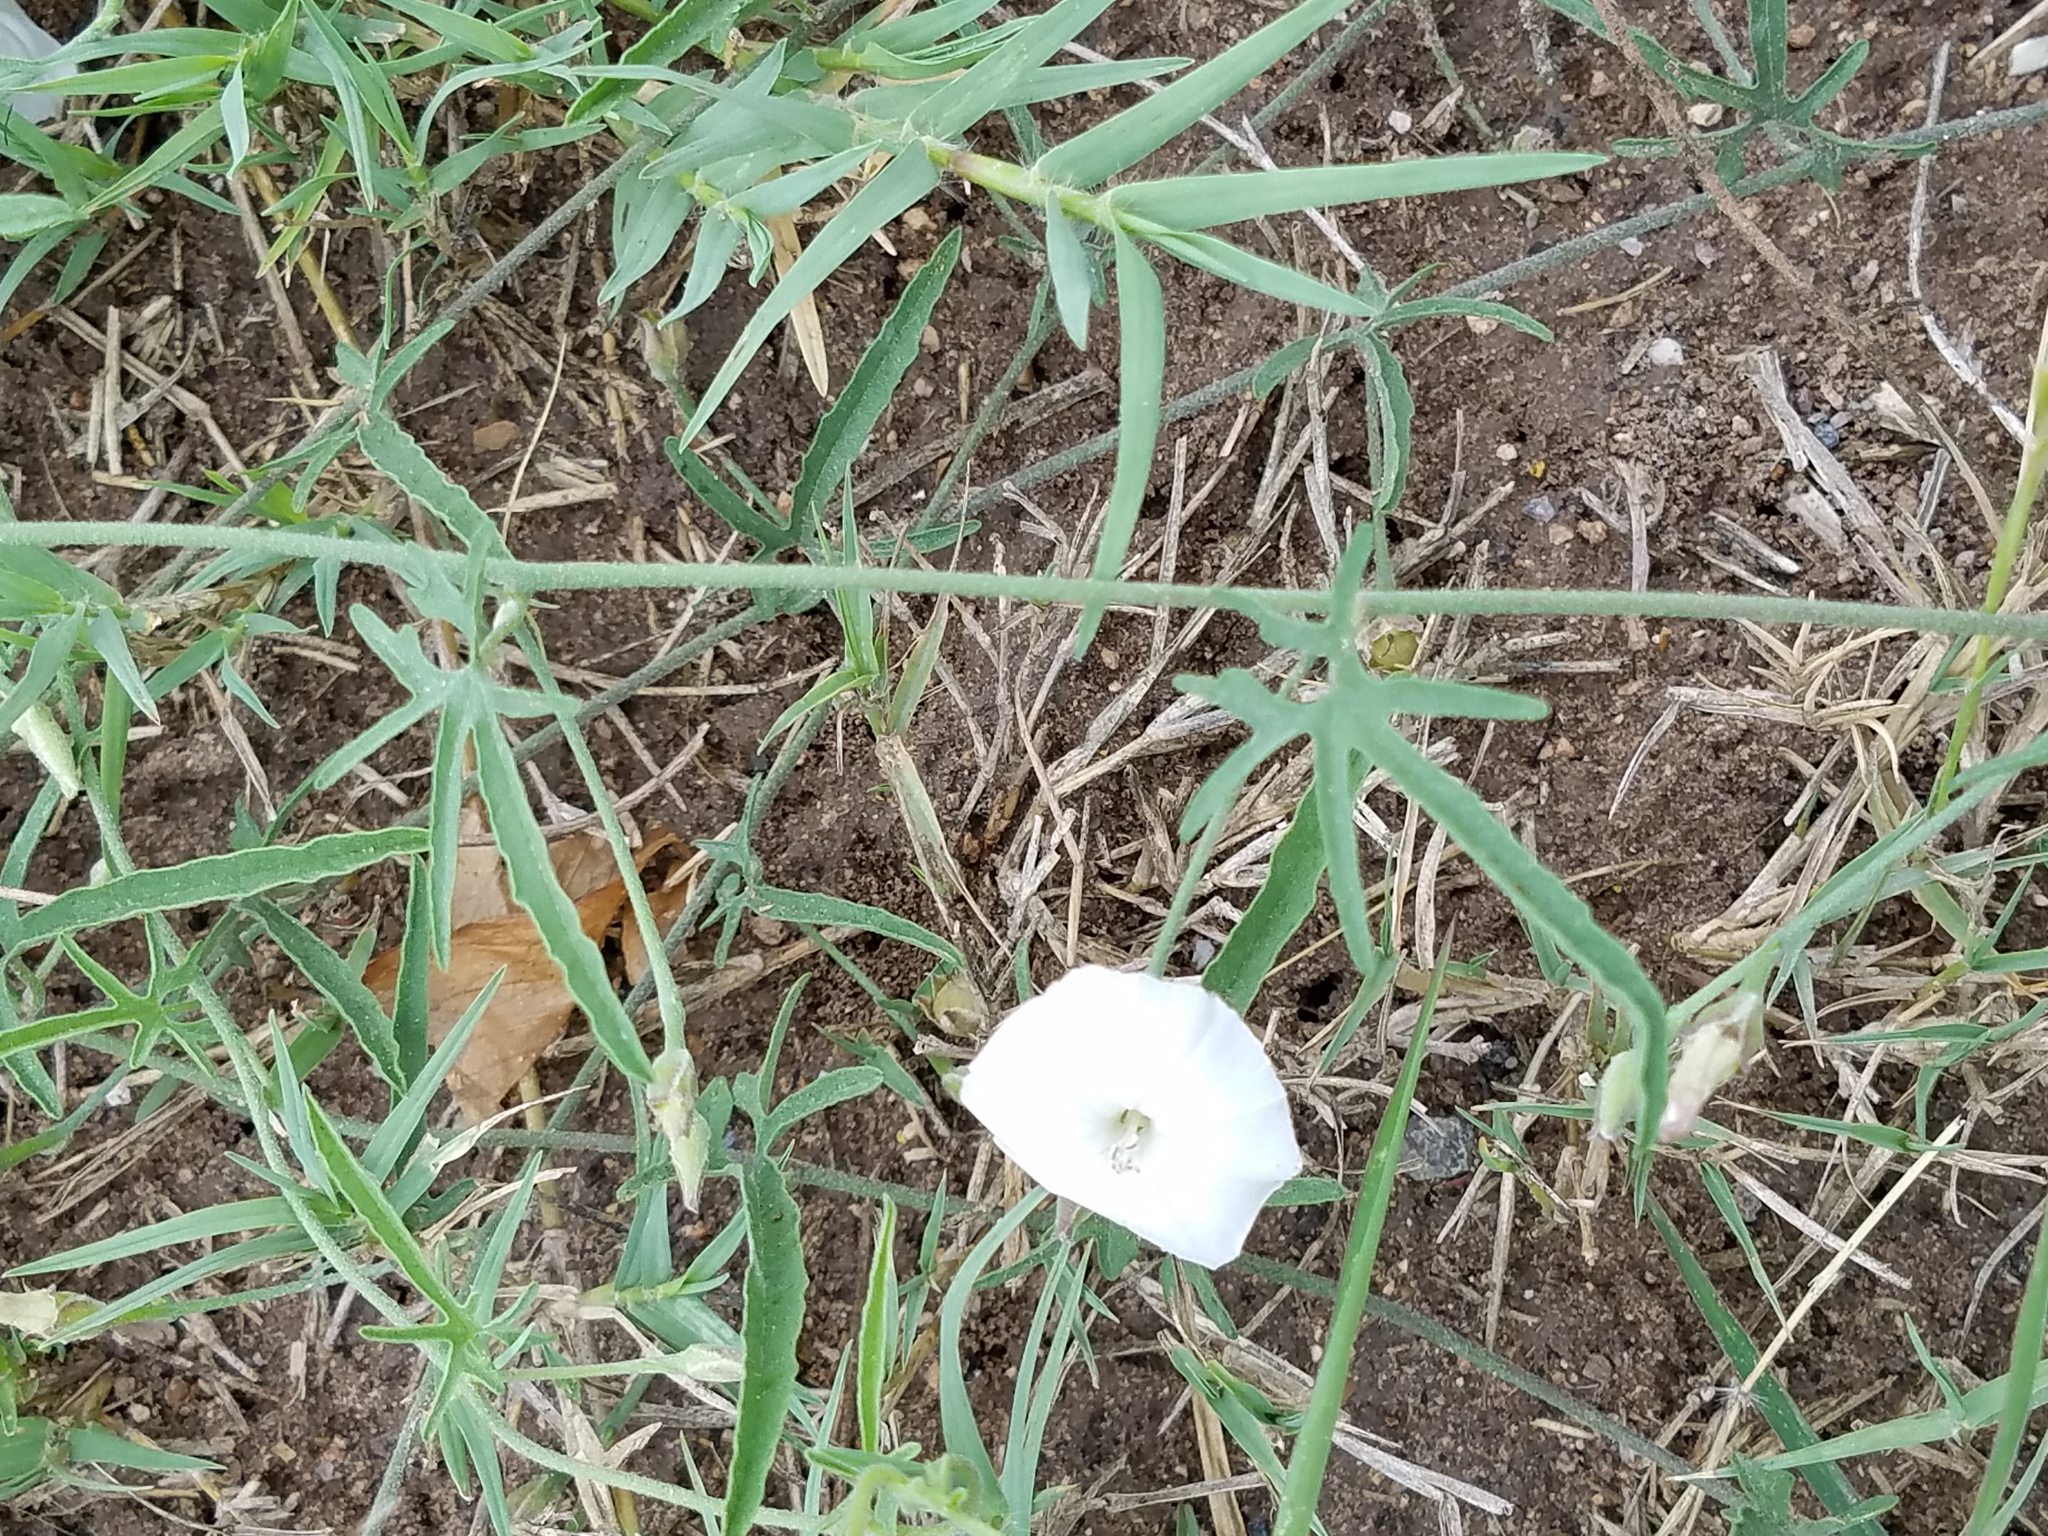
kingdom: Plantae
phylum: Tracheophyta
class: Magnoliopsida
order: Solanales
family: Convolvulaceae
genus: Evolvulus
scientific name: Evolvulus sericeus
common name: Blue dots
